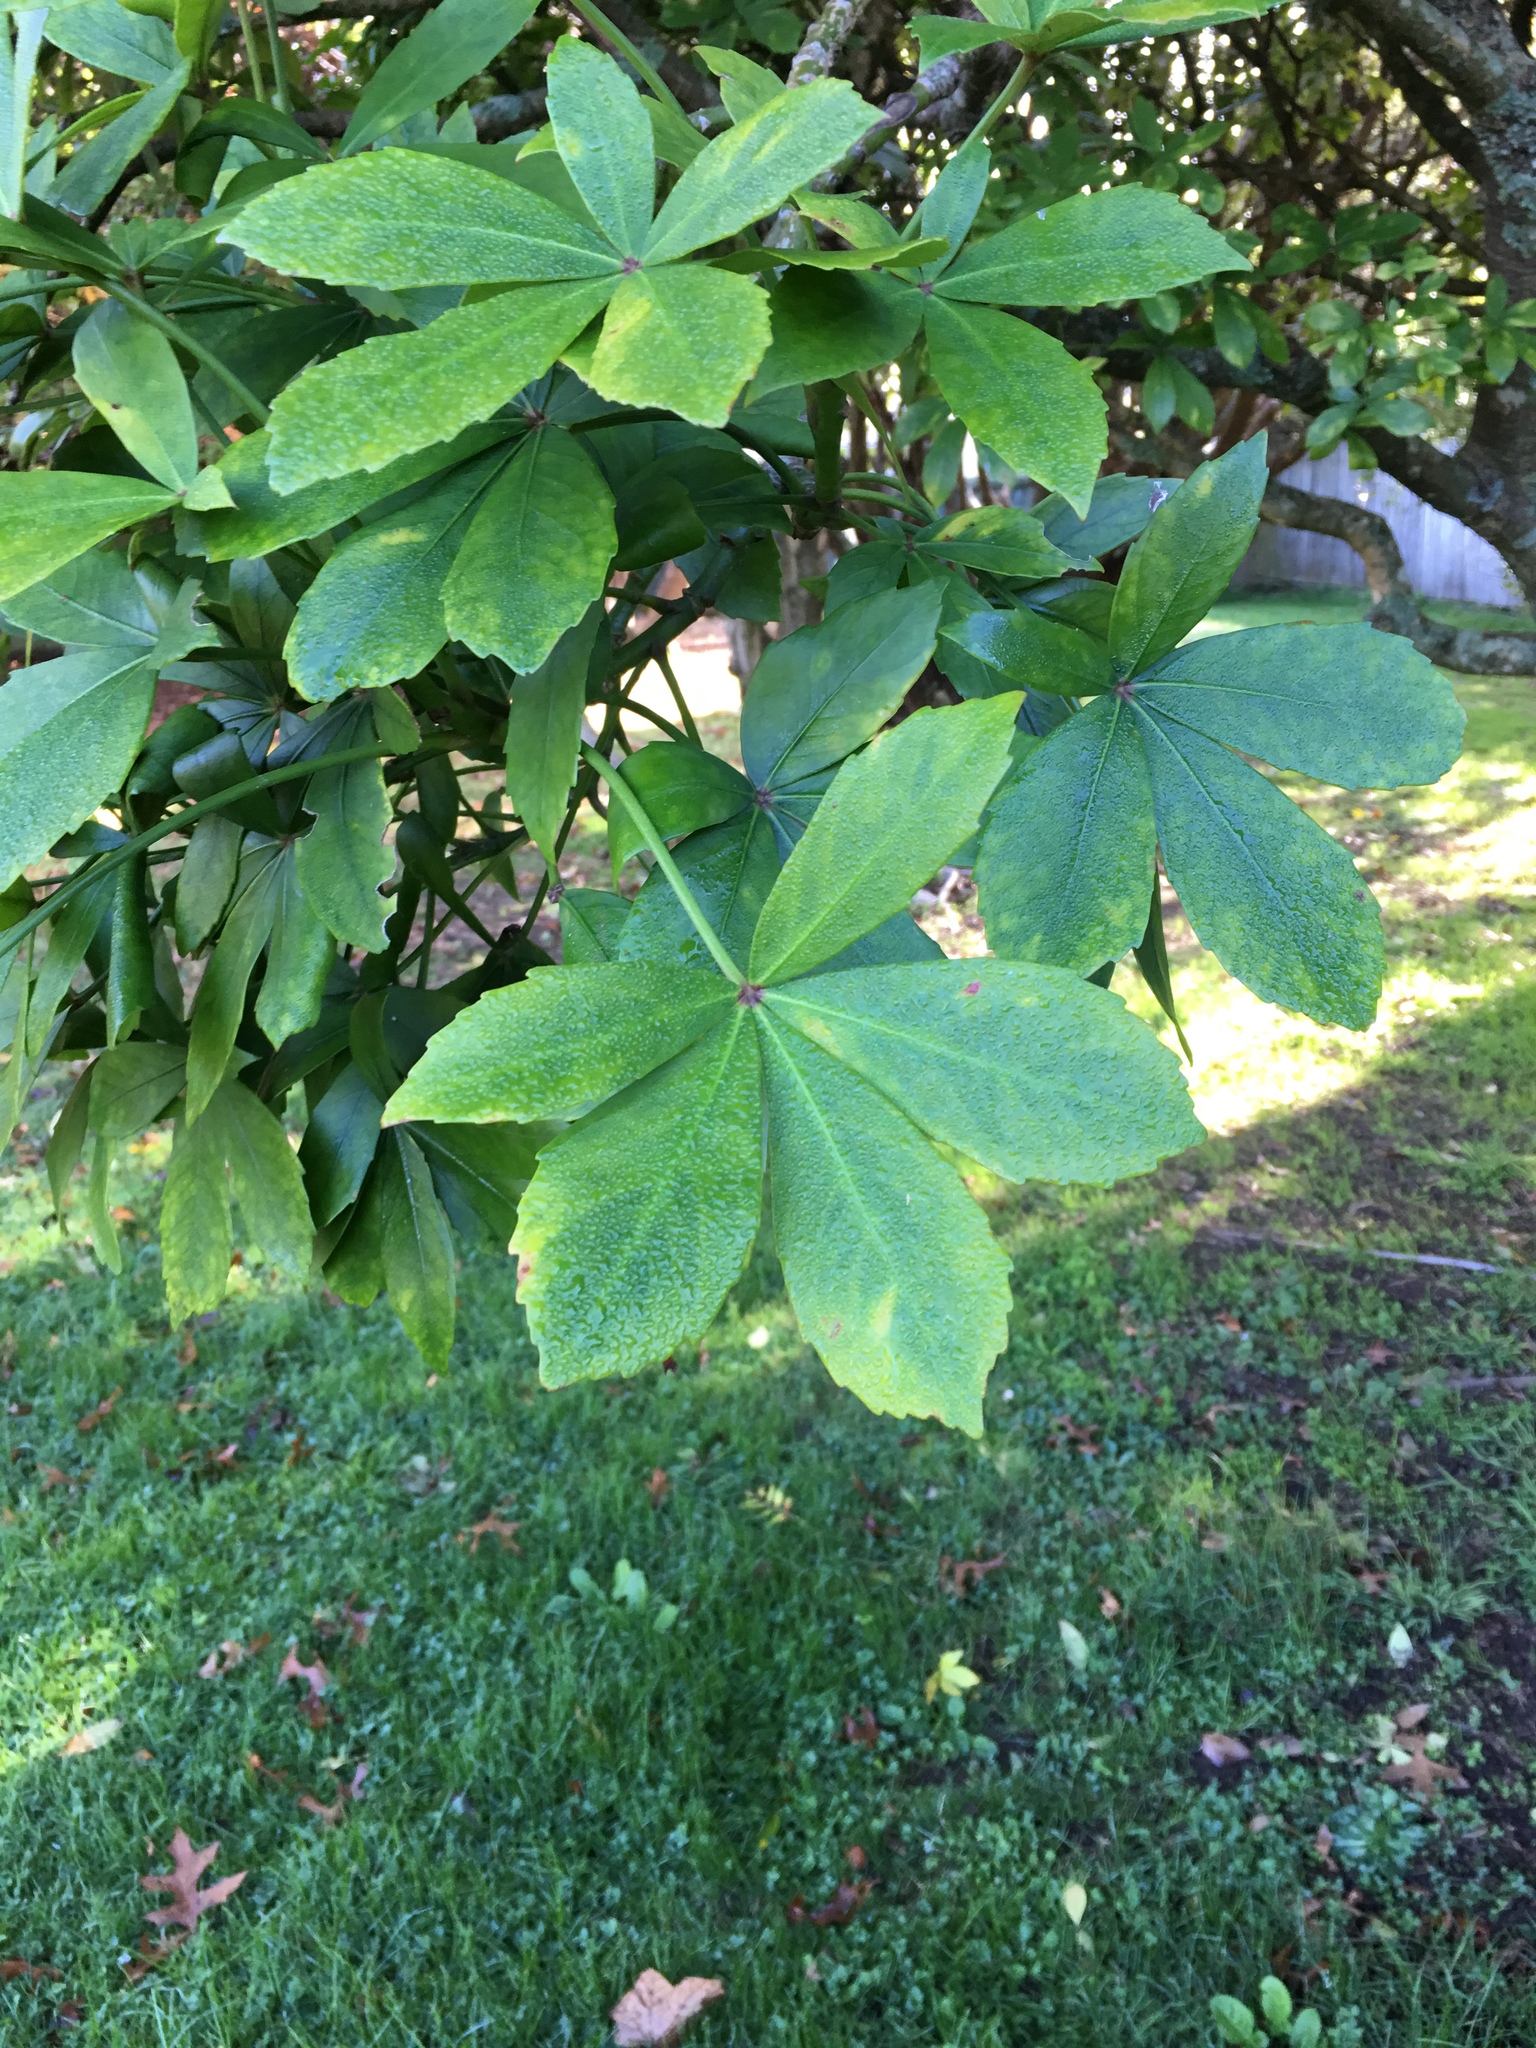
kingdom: Plantae
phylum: Tracheophyta
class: Magnoliopsida
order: Apiales
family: Araliaceae
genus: Pseudopanax
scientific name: Pseudopanax lessonii
